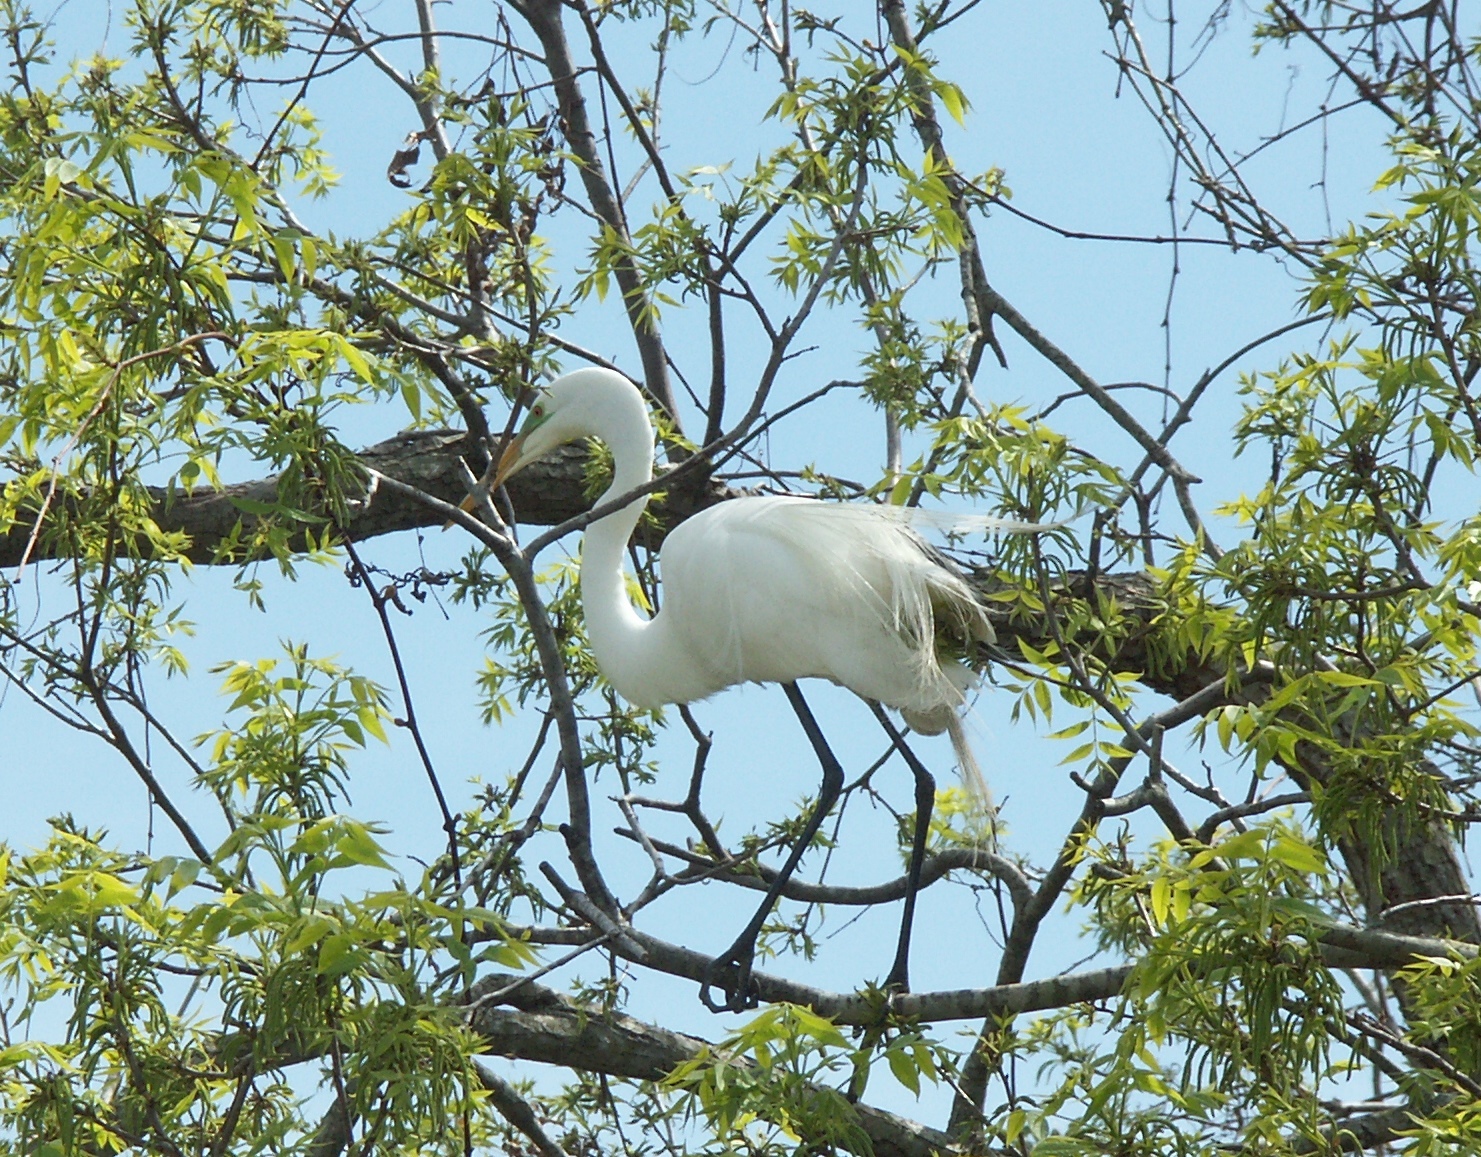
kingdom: Animalia
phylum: Chordata
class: Aves
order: Pelecaniformes
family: Ardeidae
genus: Ardea
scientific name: Ardea alba
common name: Great egret
